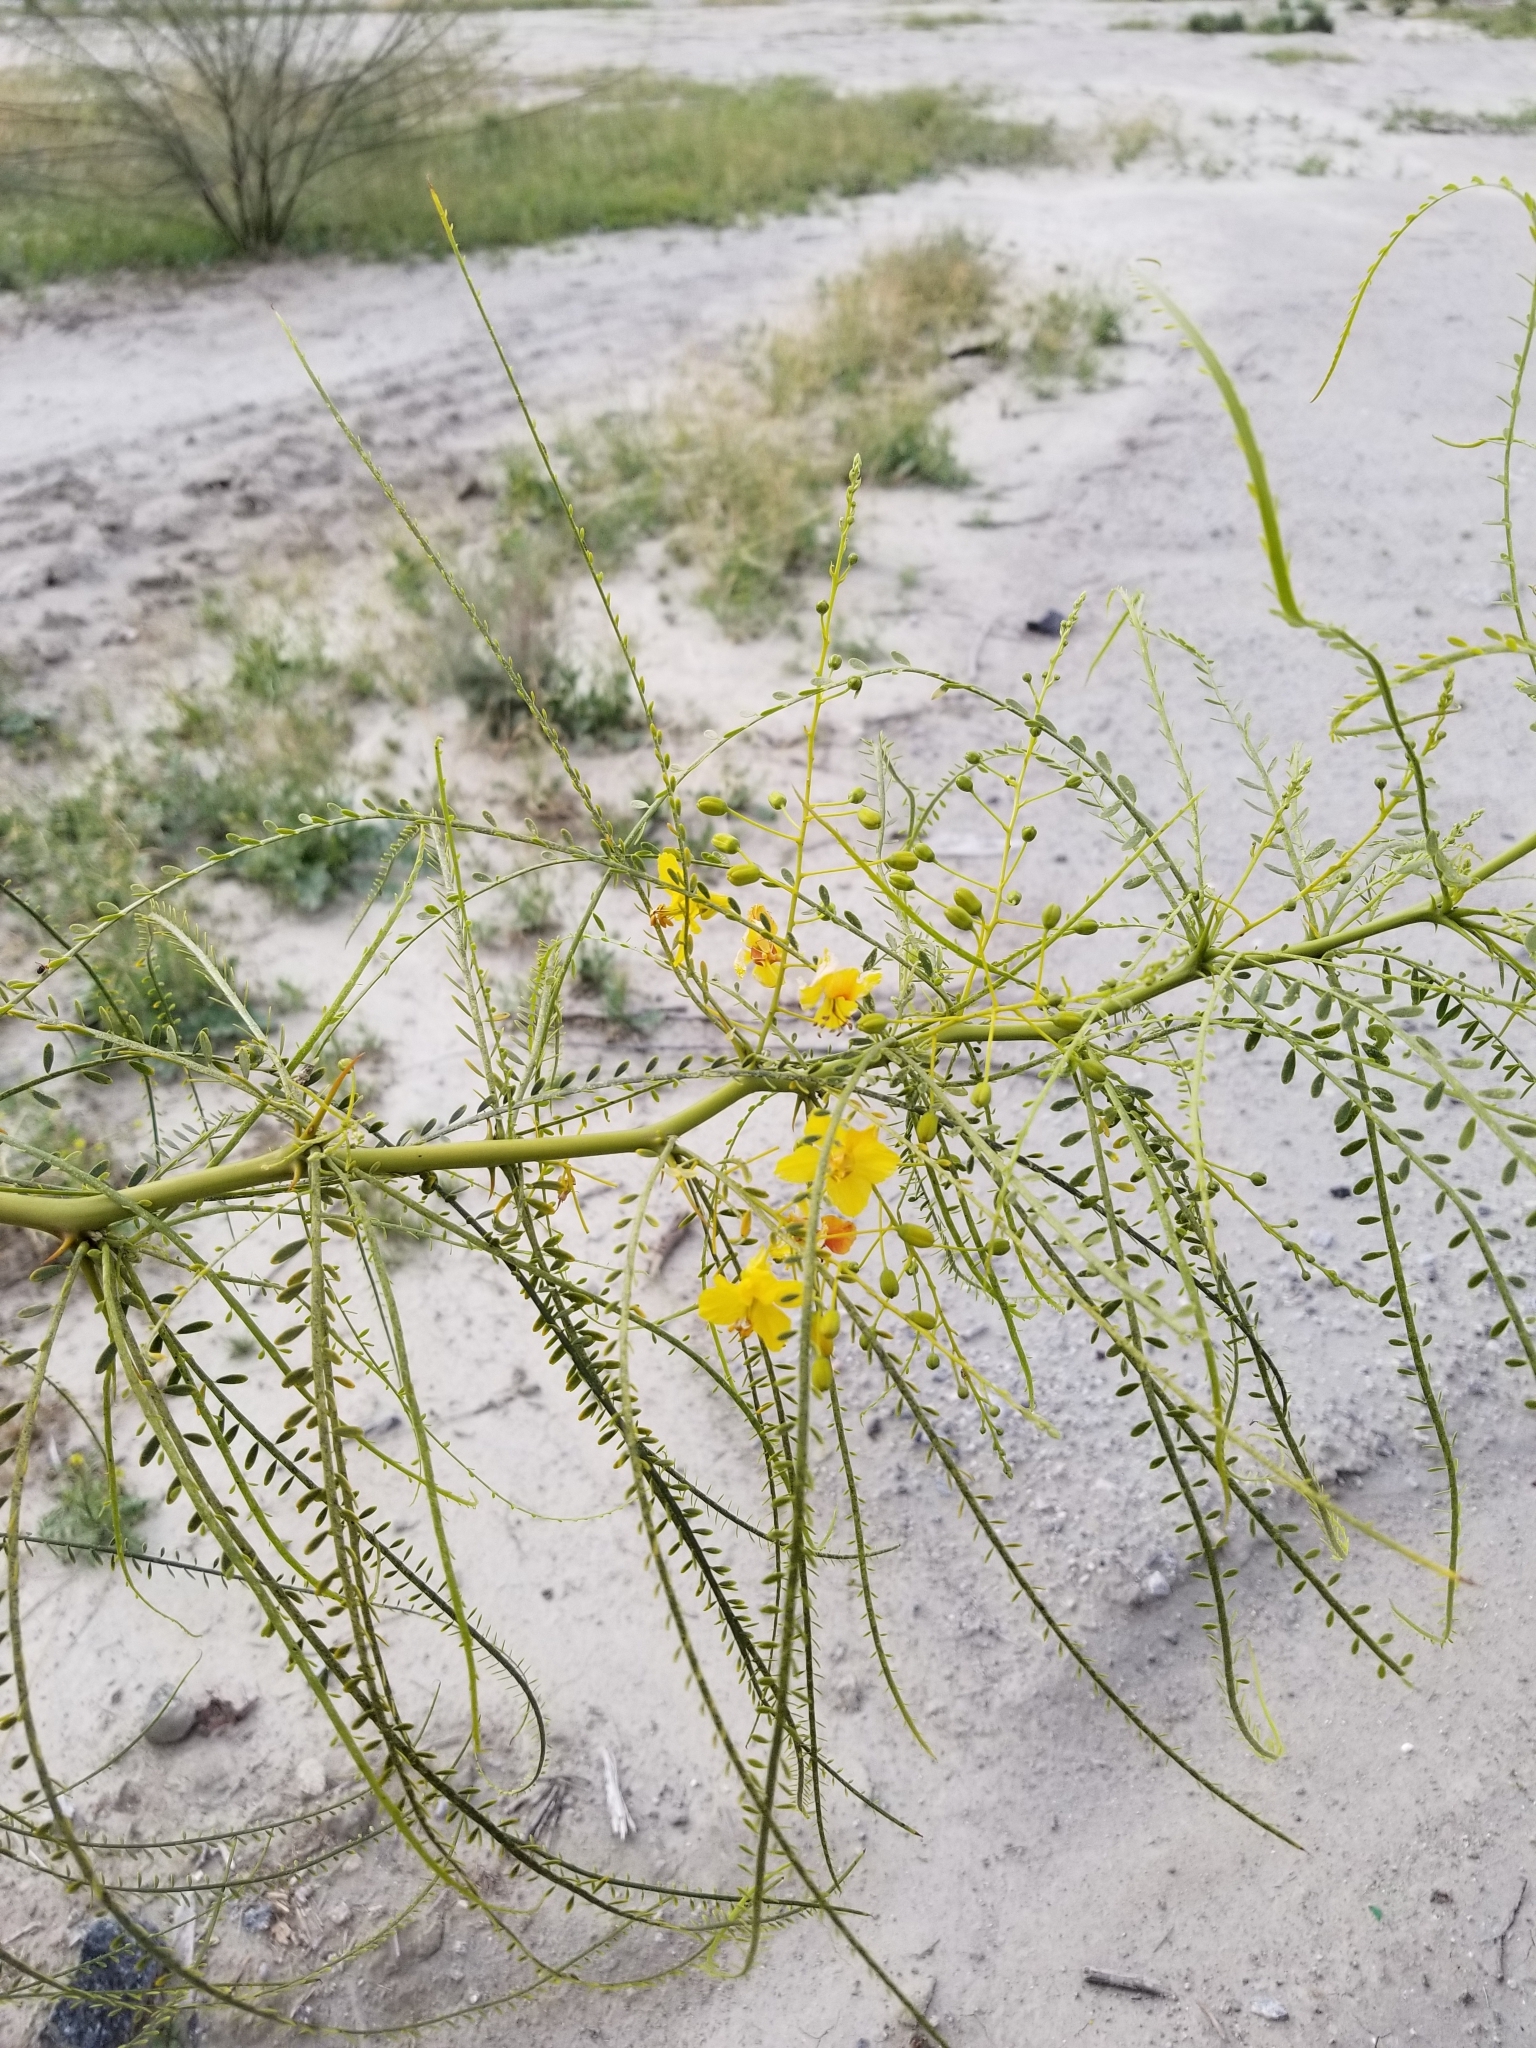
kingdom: Plantae
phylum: Tracheophyta
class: Magnoliopsida
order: Fabales
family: Fabaceae
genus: Parkinsonia
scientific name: Parkinsonia aculeata
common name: Jerusalem thorn
